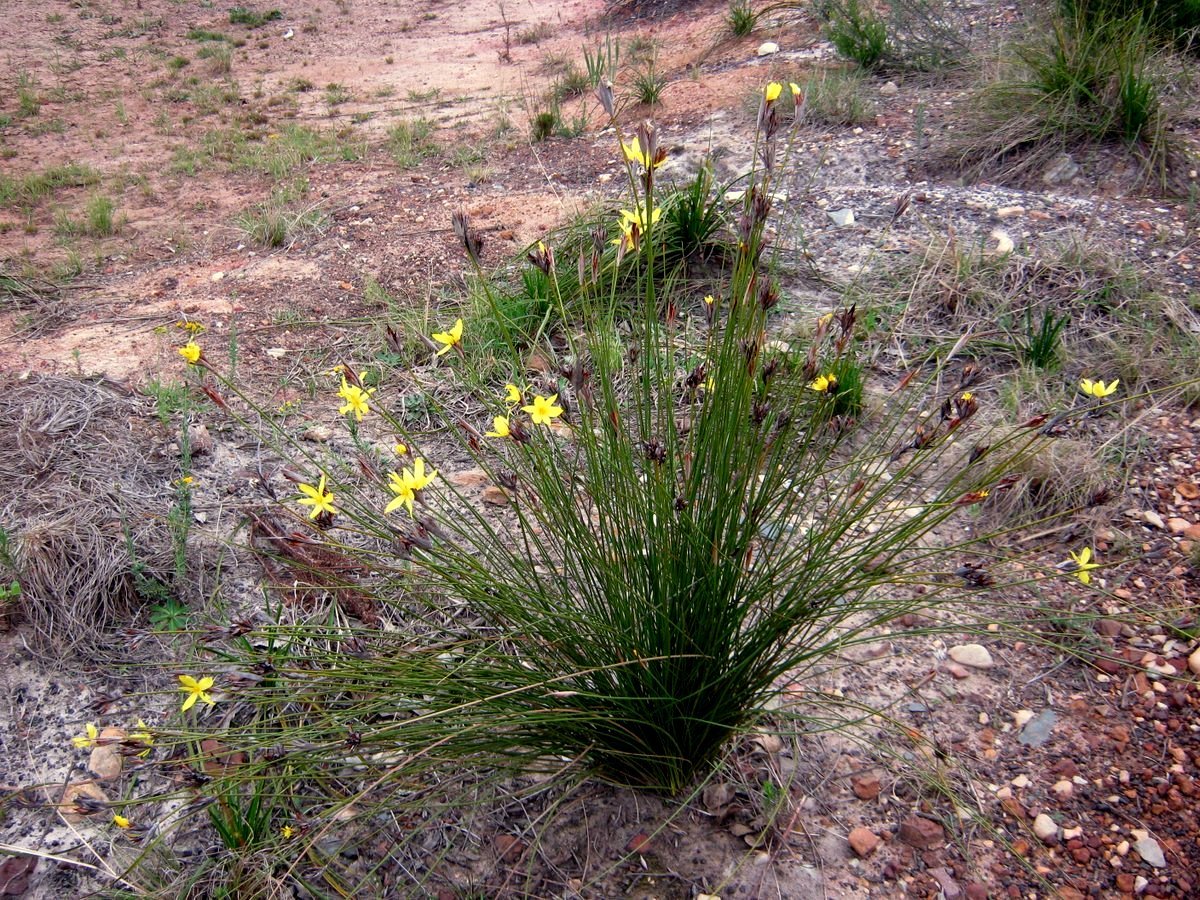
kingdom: Plantae
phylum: Tracheophyta
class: Liliopsida
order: Asparagales
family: Iridaceae
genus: Bobartia
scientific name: Bobartia orientalis
